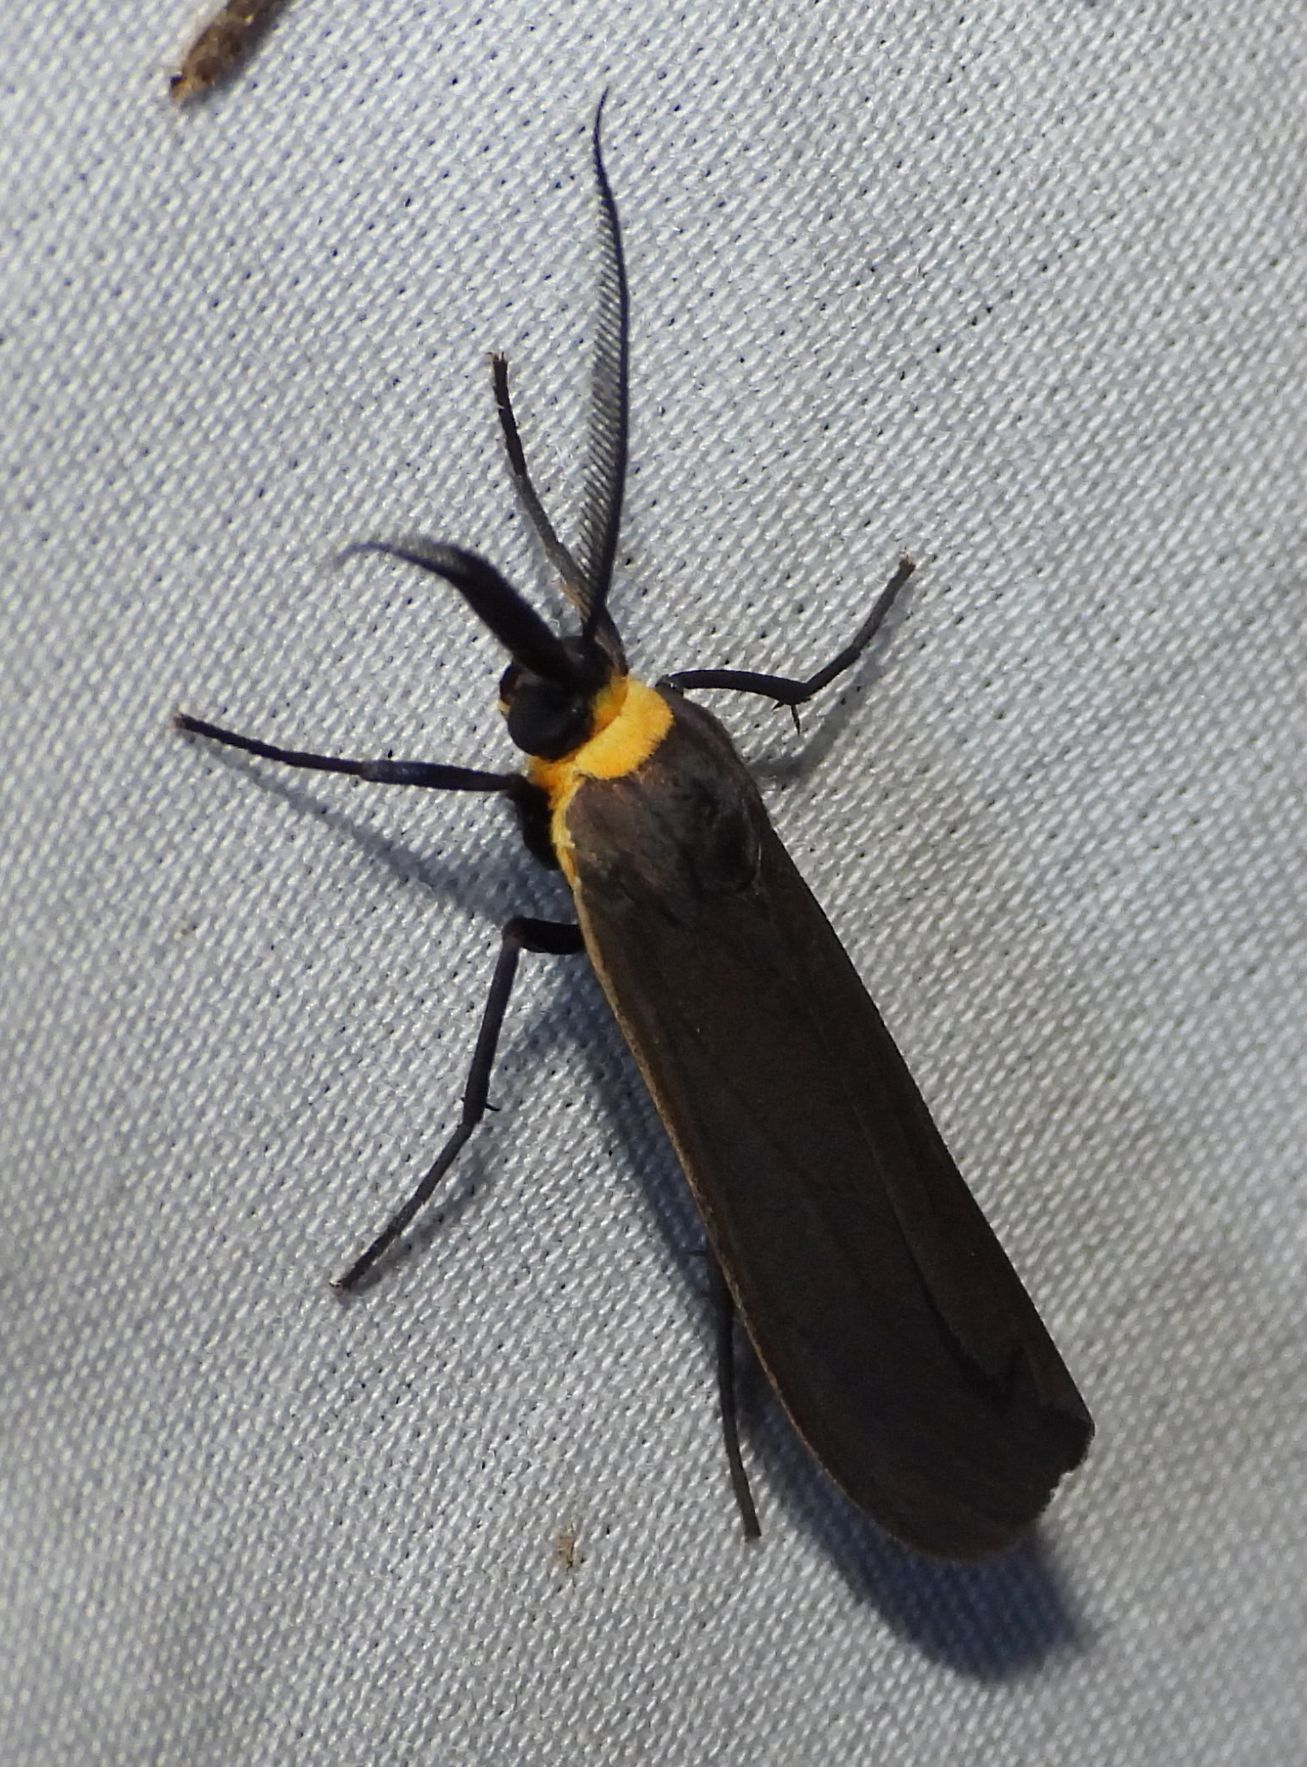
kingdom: Animalia
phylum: Arthropoda
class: Insecta
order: Lepidoptera
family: Erebidae
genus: Cisseps
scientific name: Cisseps fulvicollis
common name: Yellow-collared scape moth
